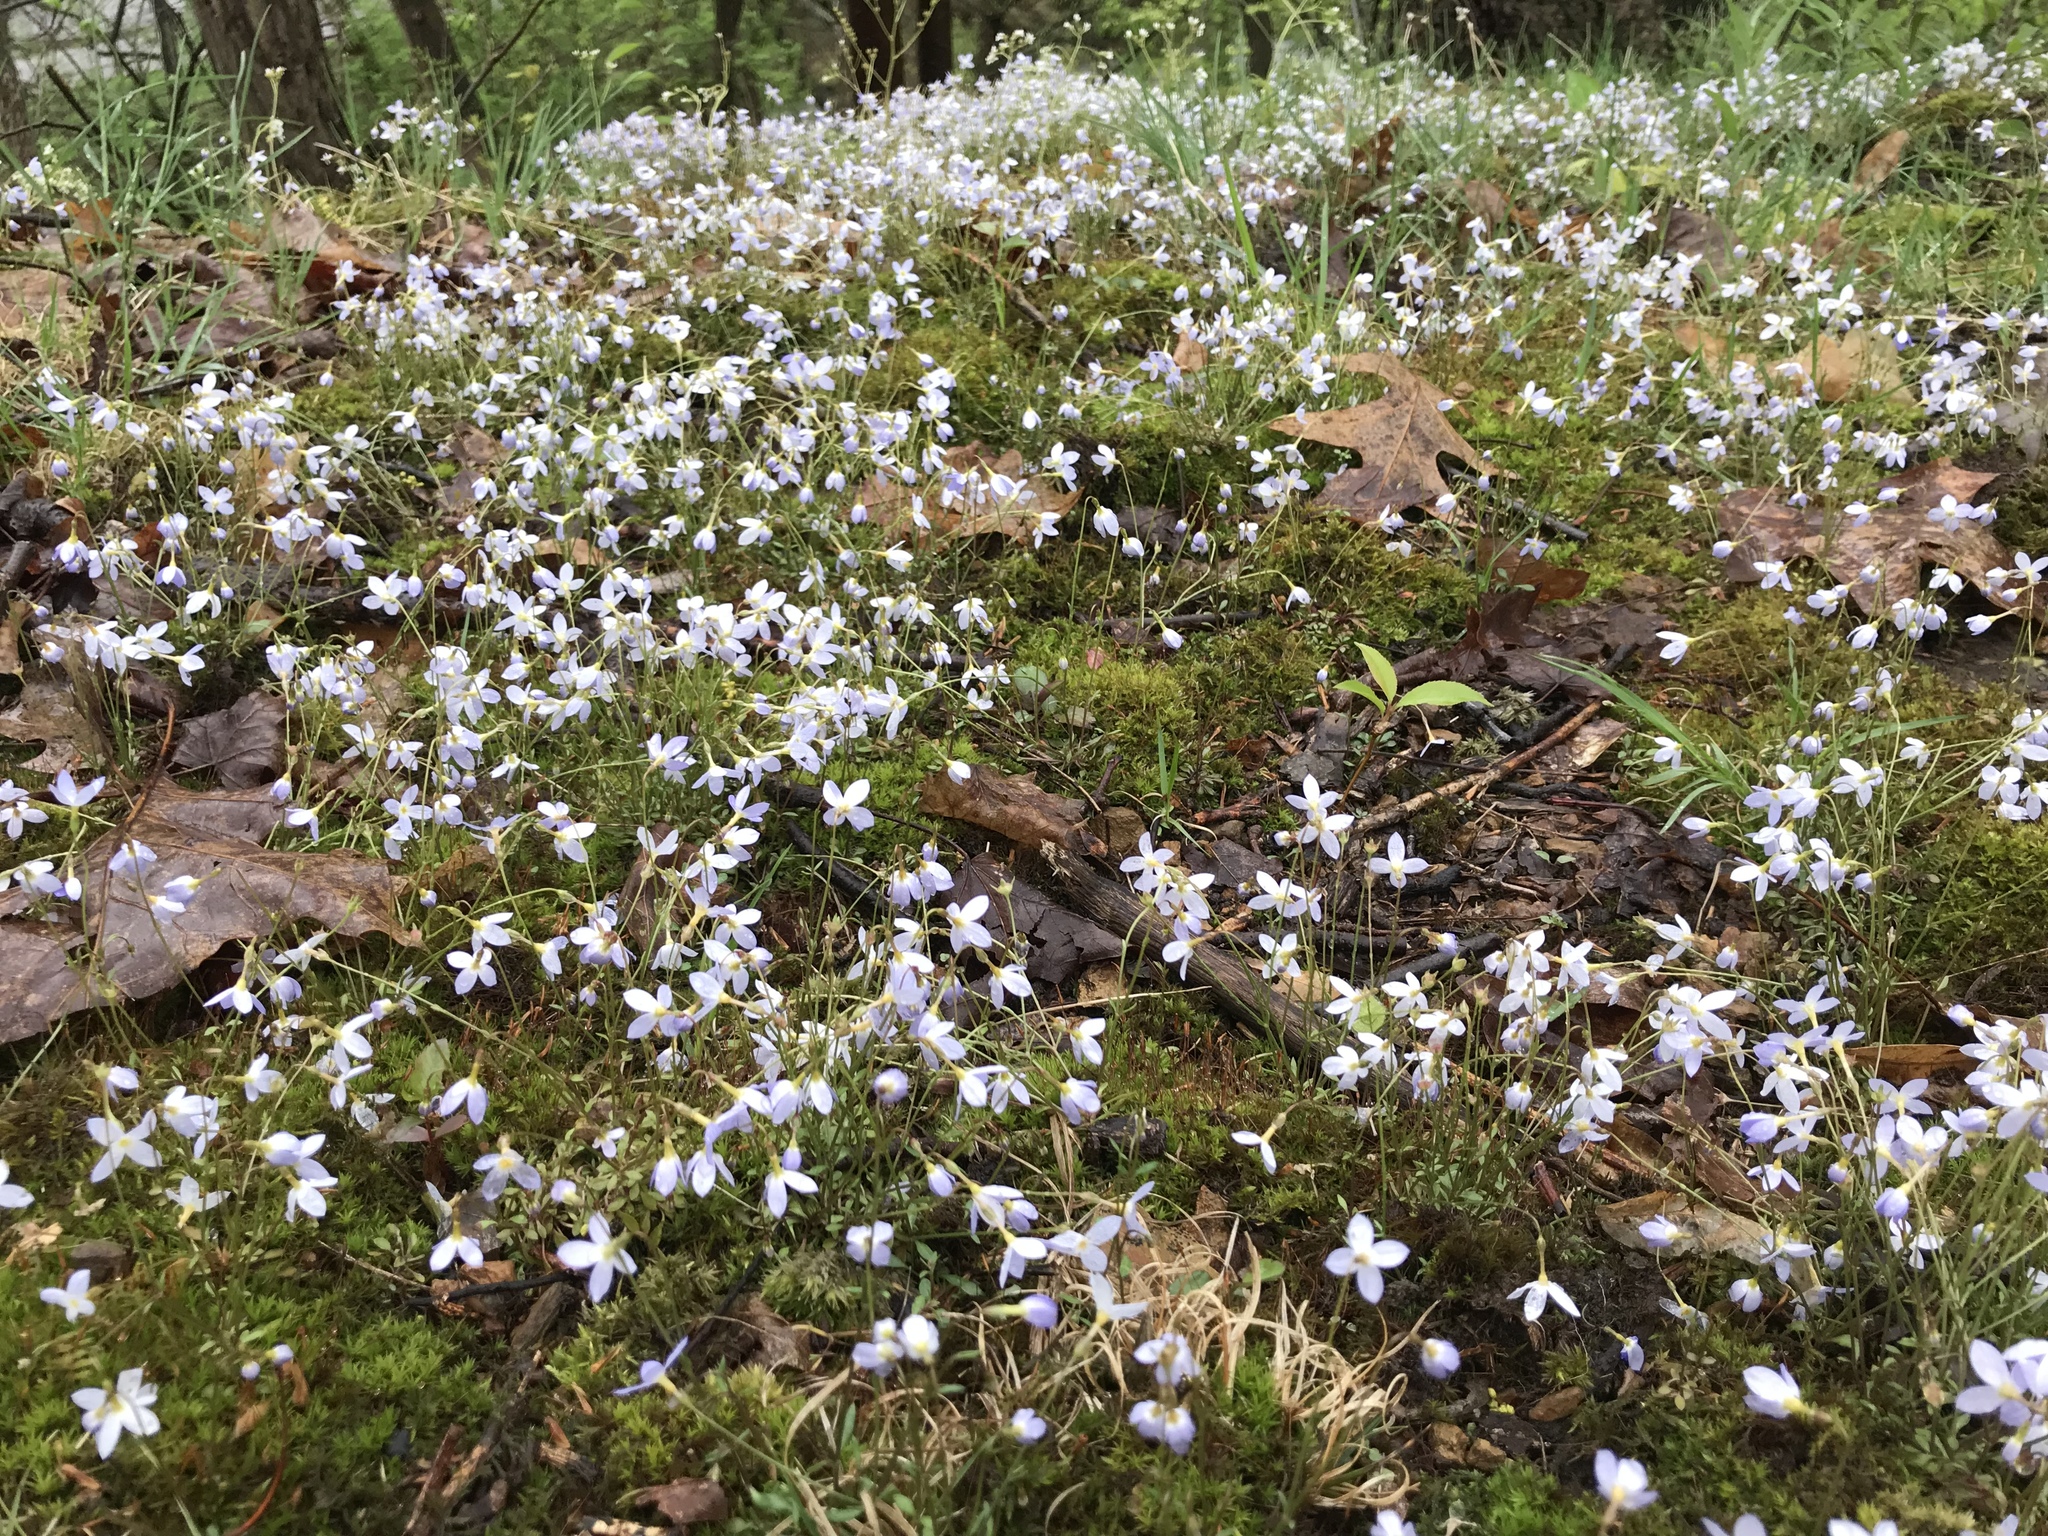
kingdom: Plantae
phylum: Tracheophyta
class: Magnoliopsida
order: Gentianales
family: Rubiaceae
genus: Houstonia
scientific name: Houstonia caerulea
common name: Bluets
